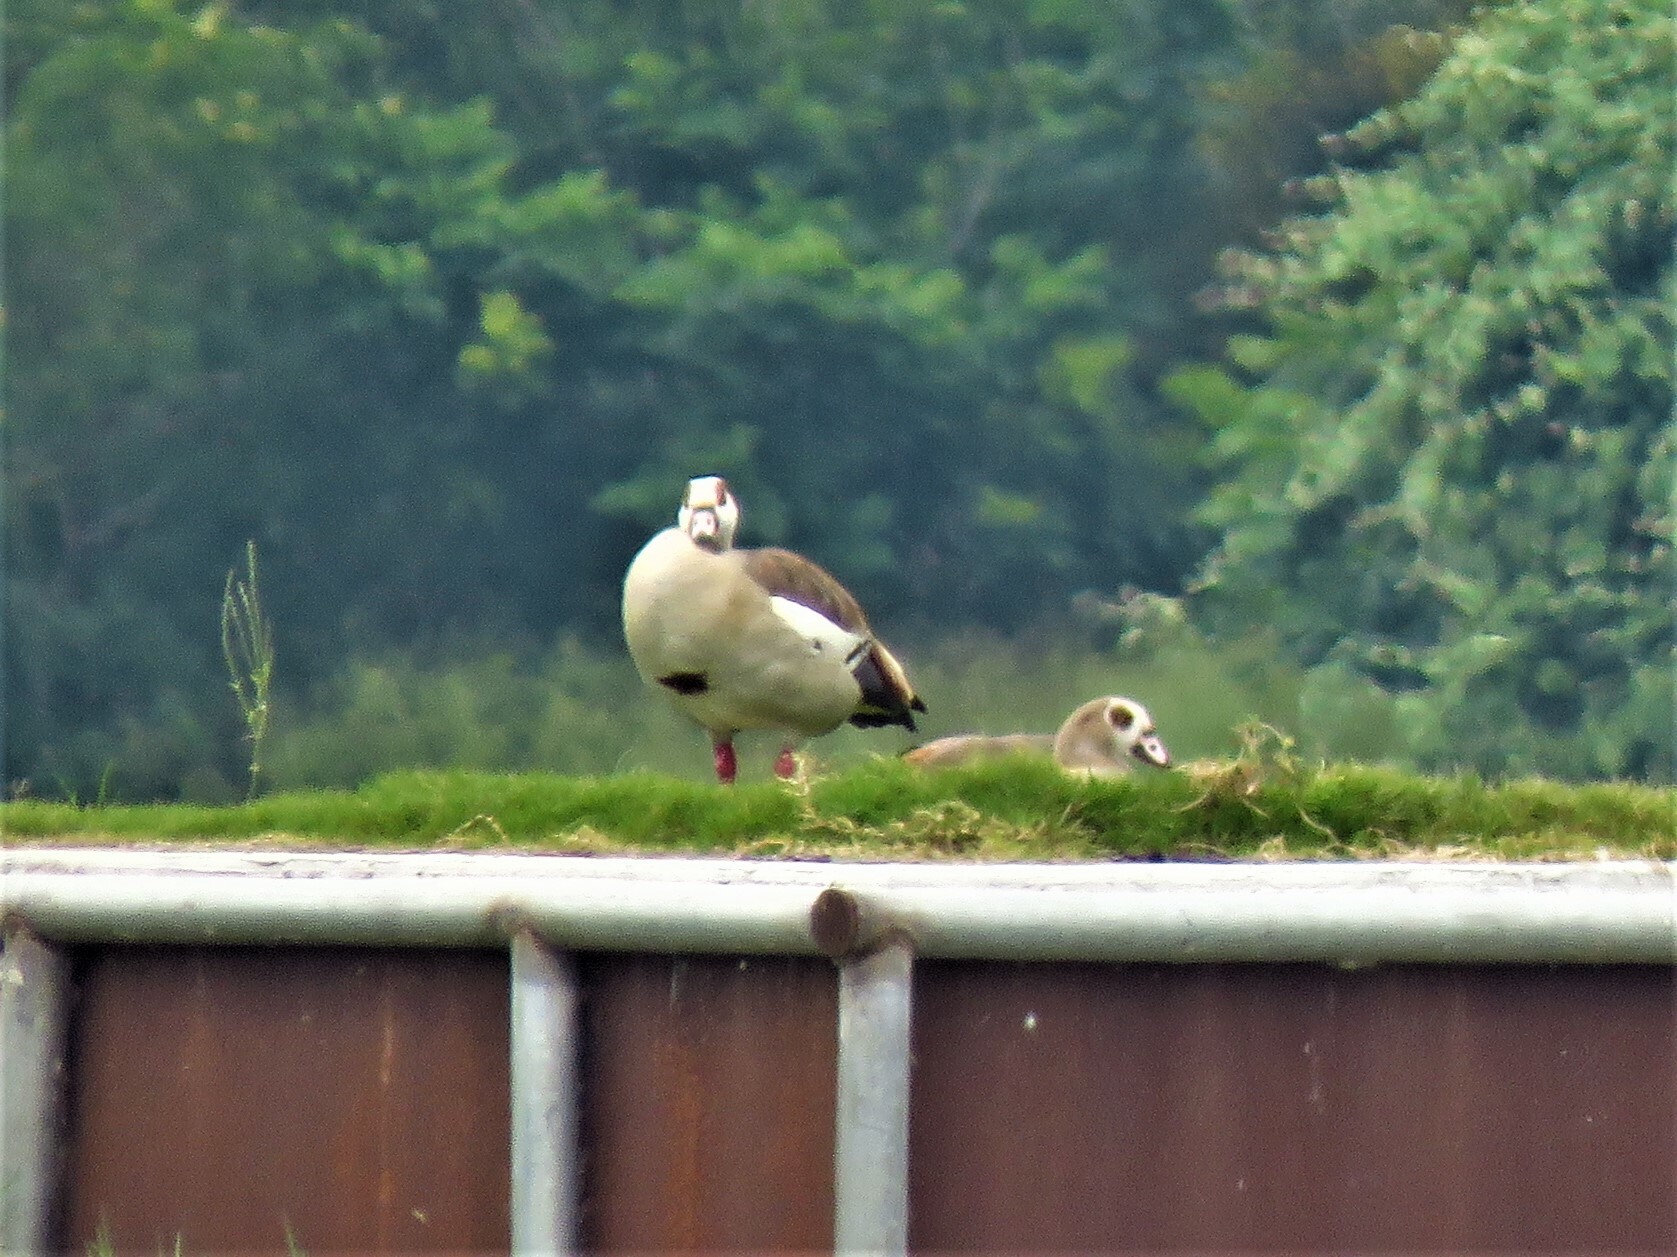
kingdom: Animalia
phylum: Chordata
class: Aves
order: Anseriformes
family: Anatidae
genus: Alopochen
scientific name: Alopochen aegyptiaca
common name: Egyptian goose
